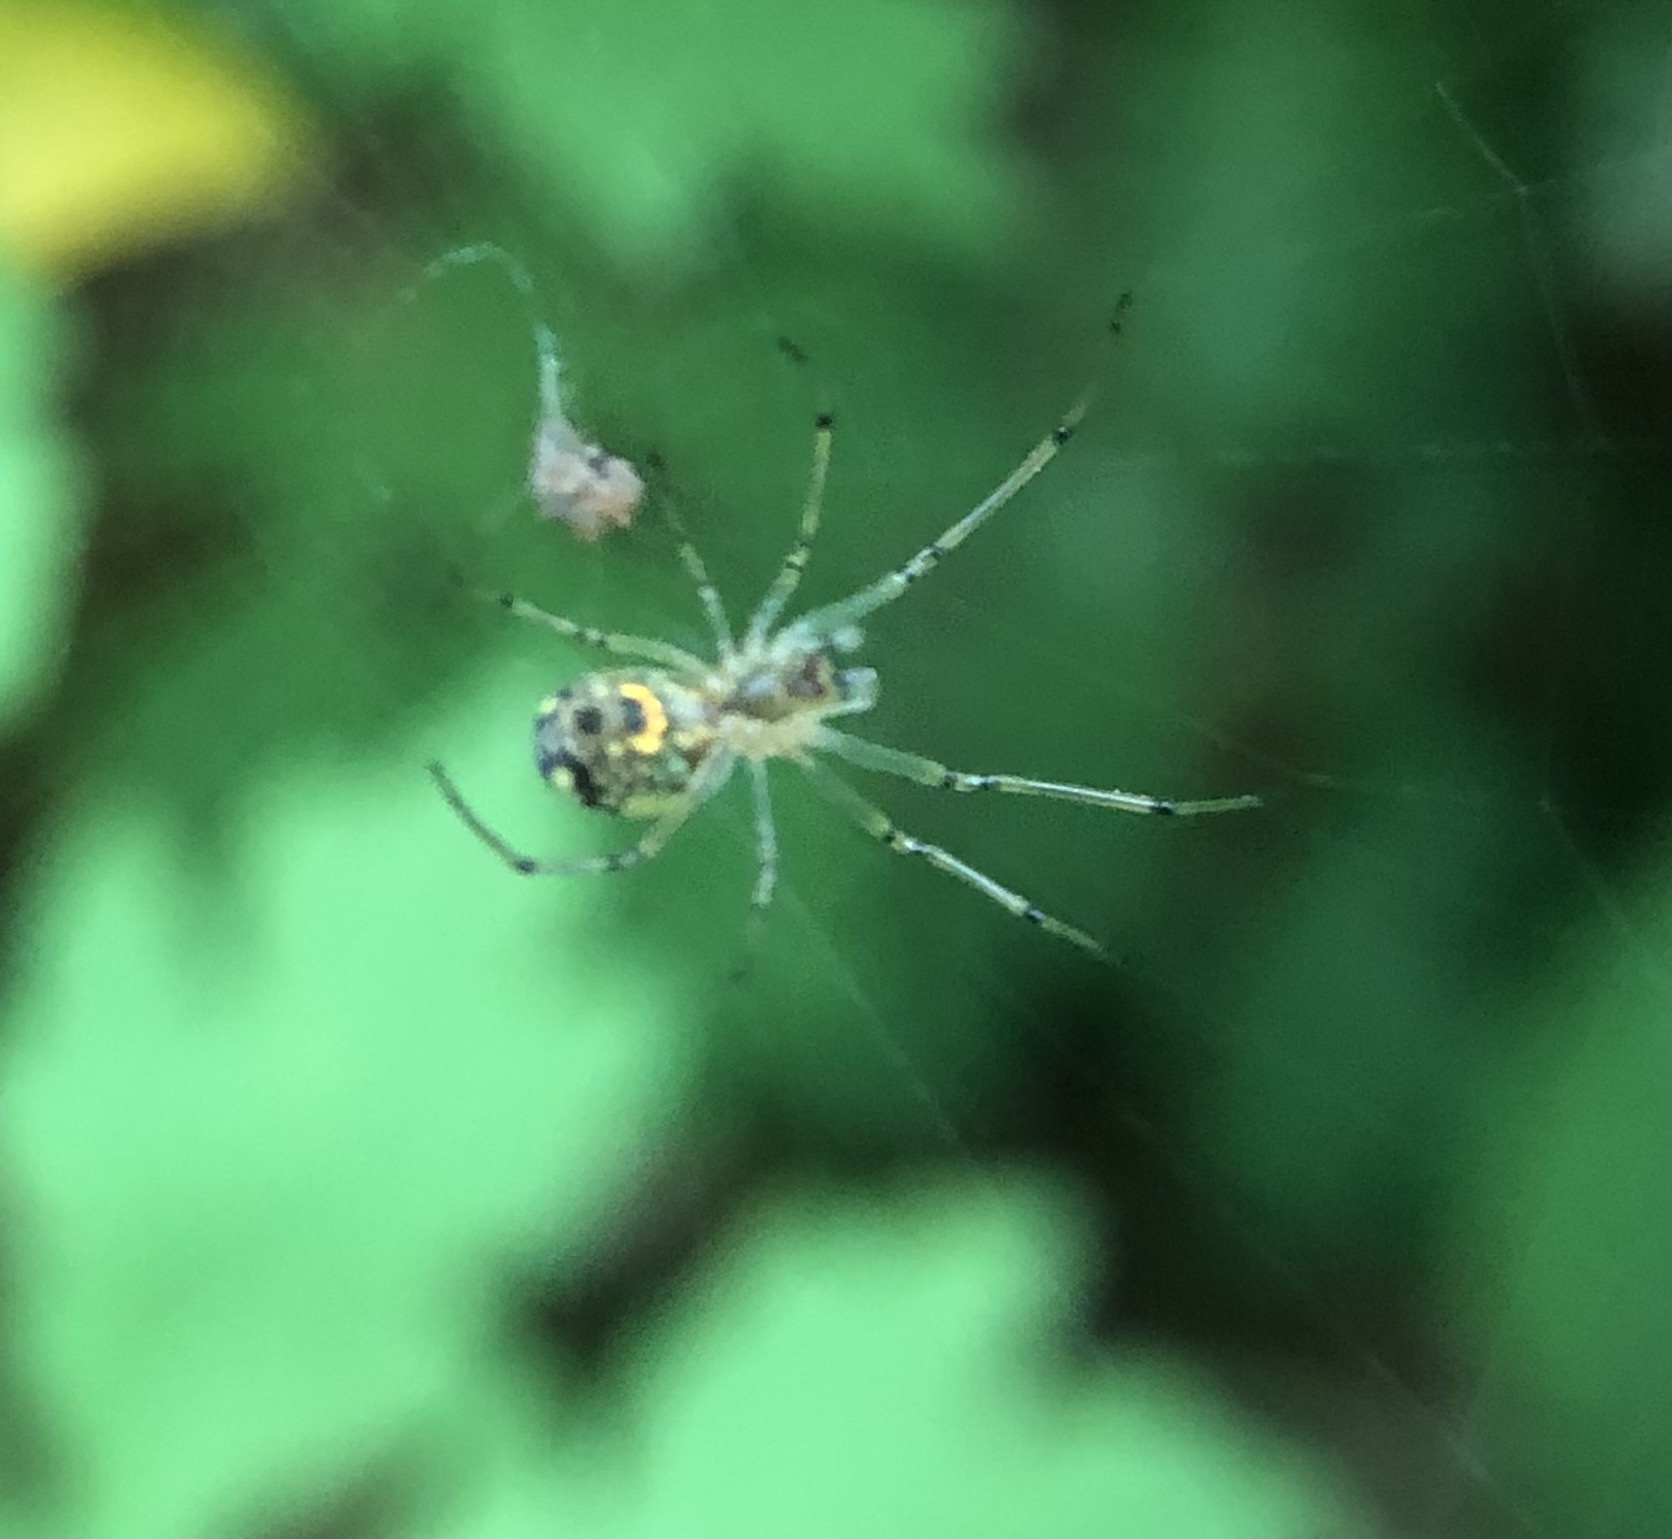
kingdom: Animalia
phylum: Arthropoda
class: Arachnida
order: Araneae
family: Tetragnathidae
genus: Leucauge
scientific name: Leucauge venusta
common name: Longjawed orb weavers
